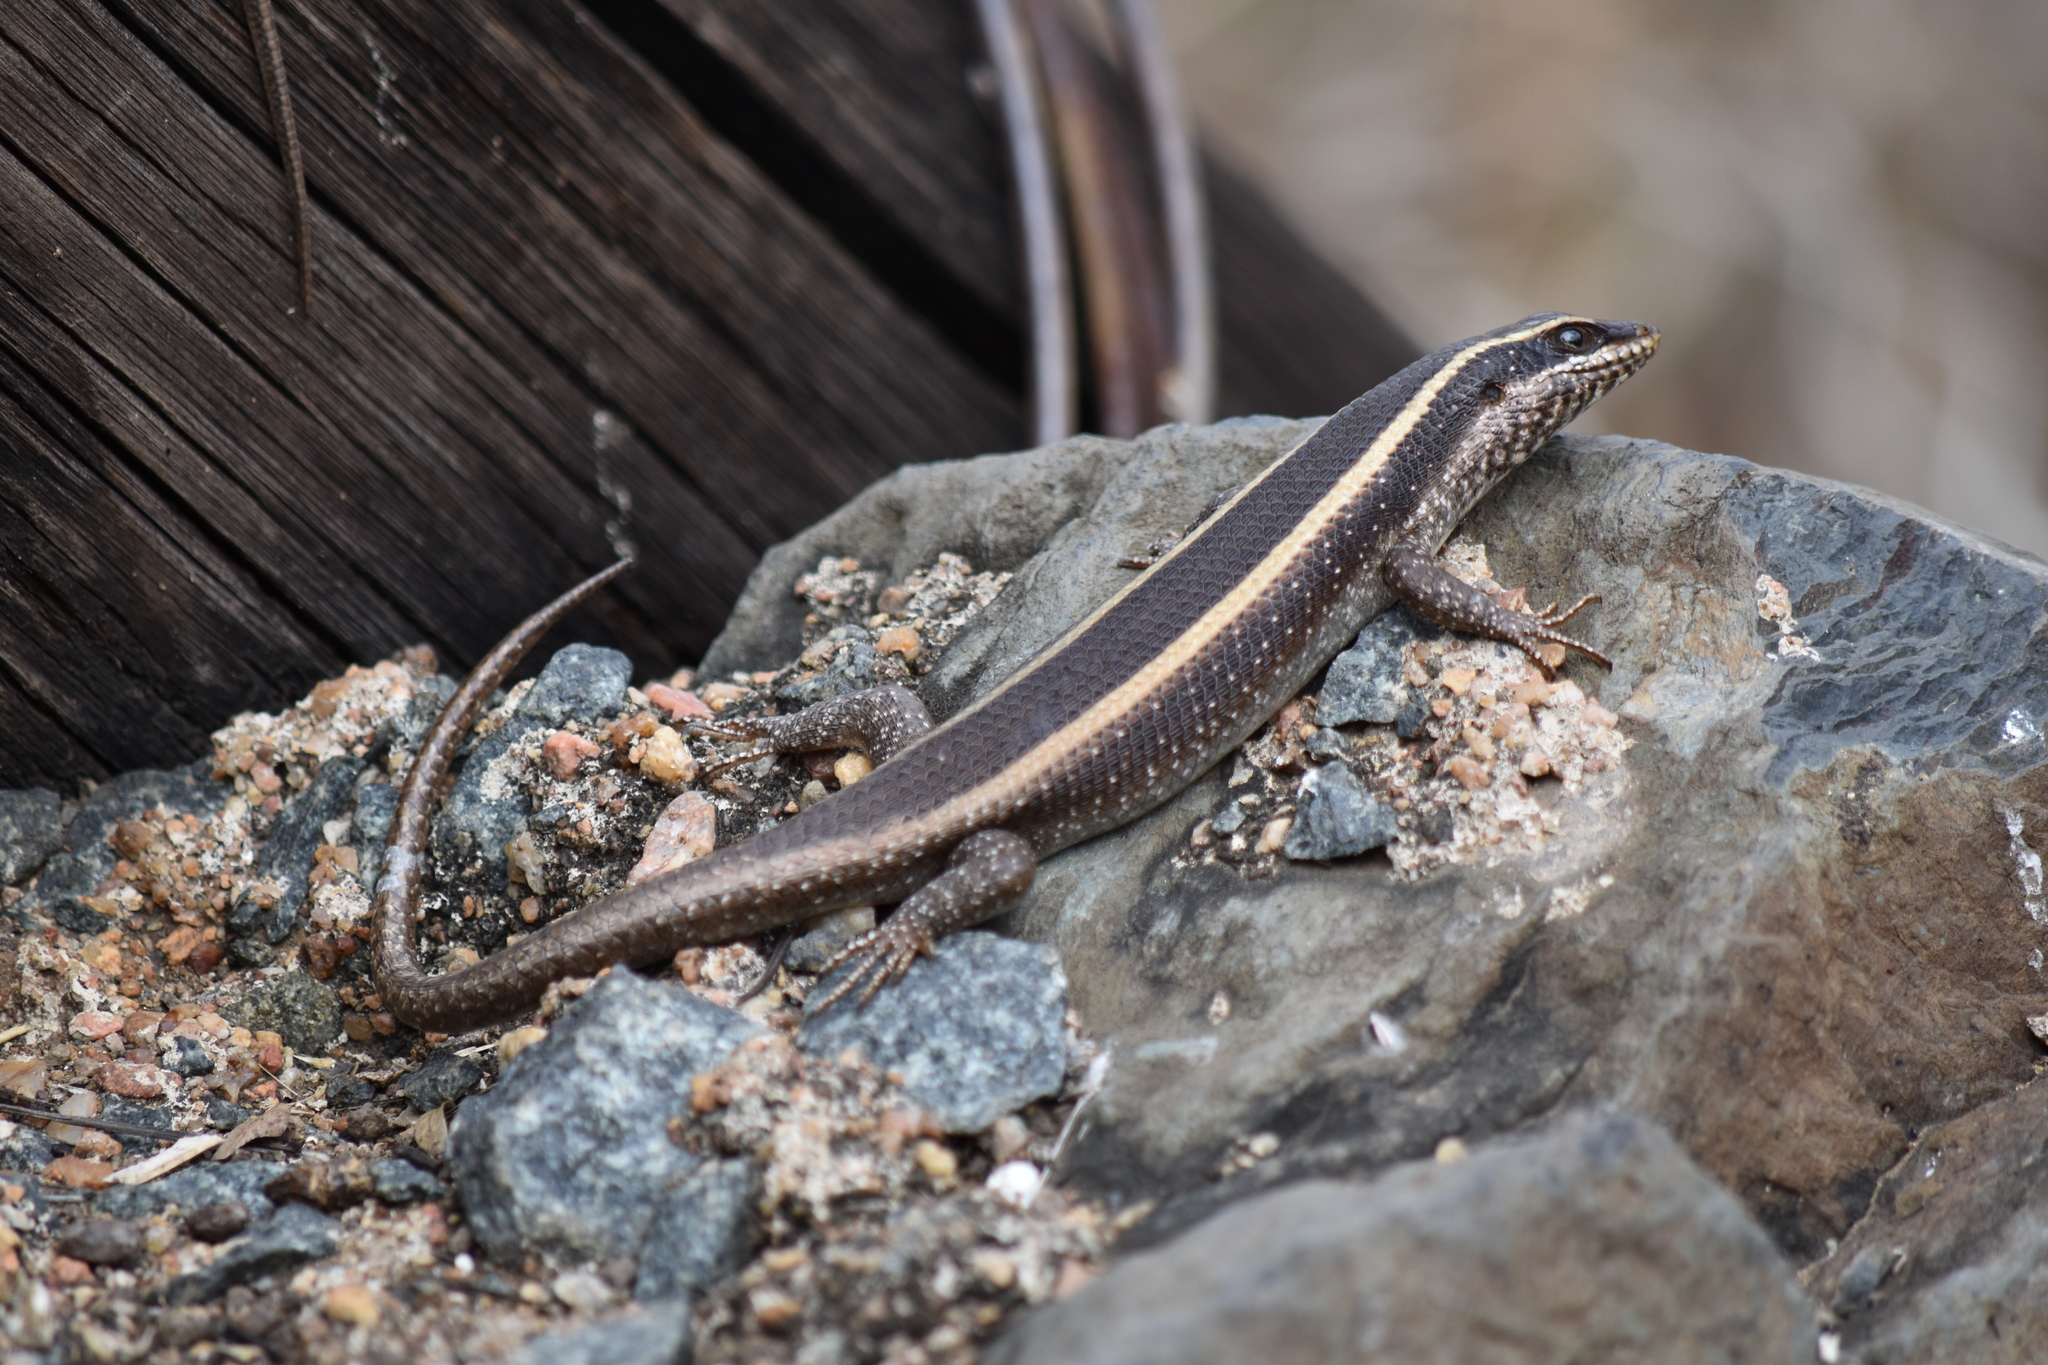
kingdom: Animalia
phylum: Chordata
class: Squamata
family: Scincidae
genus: Trachylepis
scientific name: Trachylepis striata
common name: African striped mabuya
